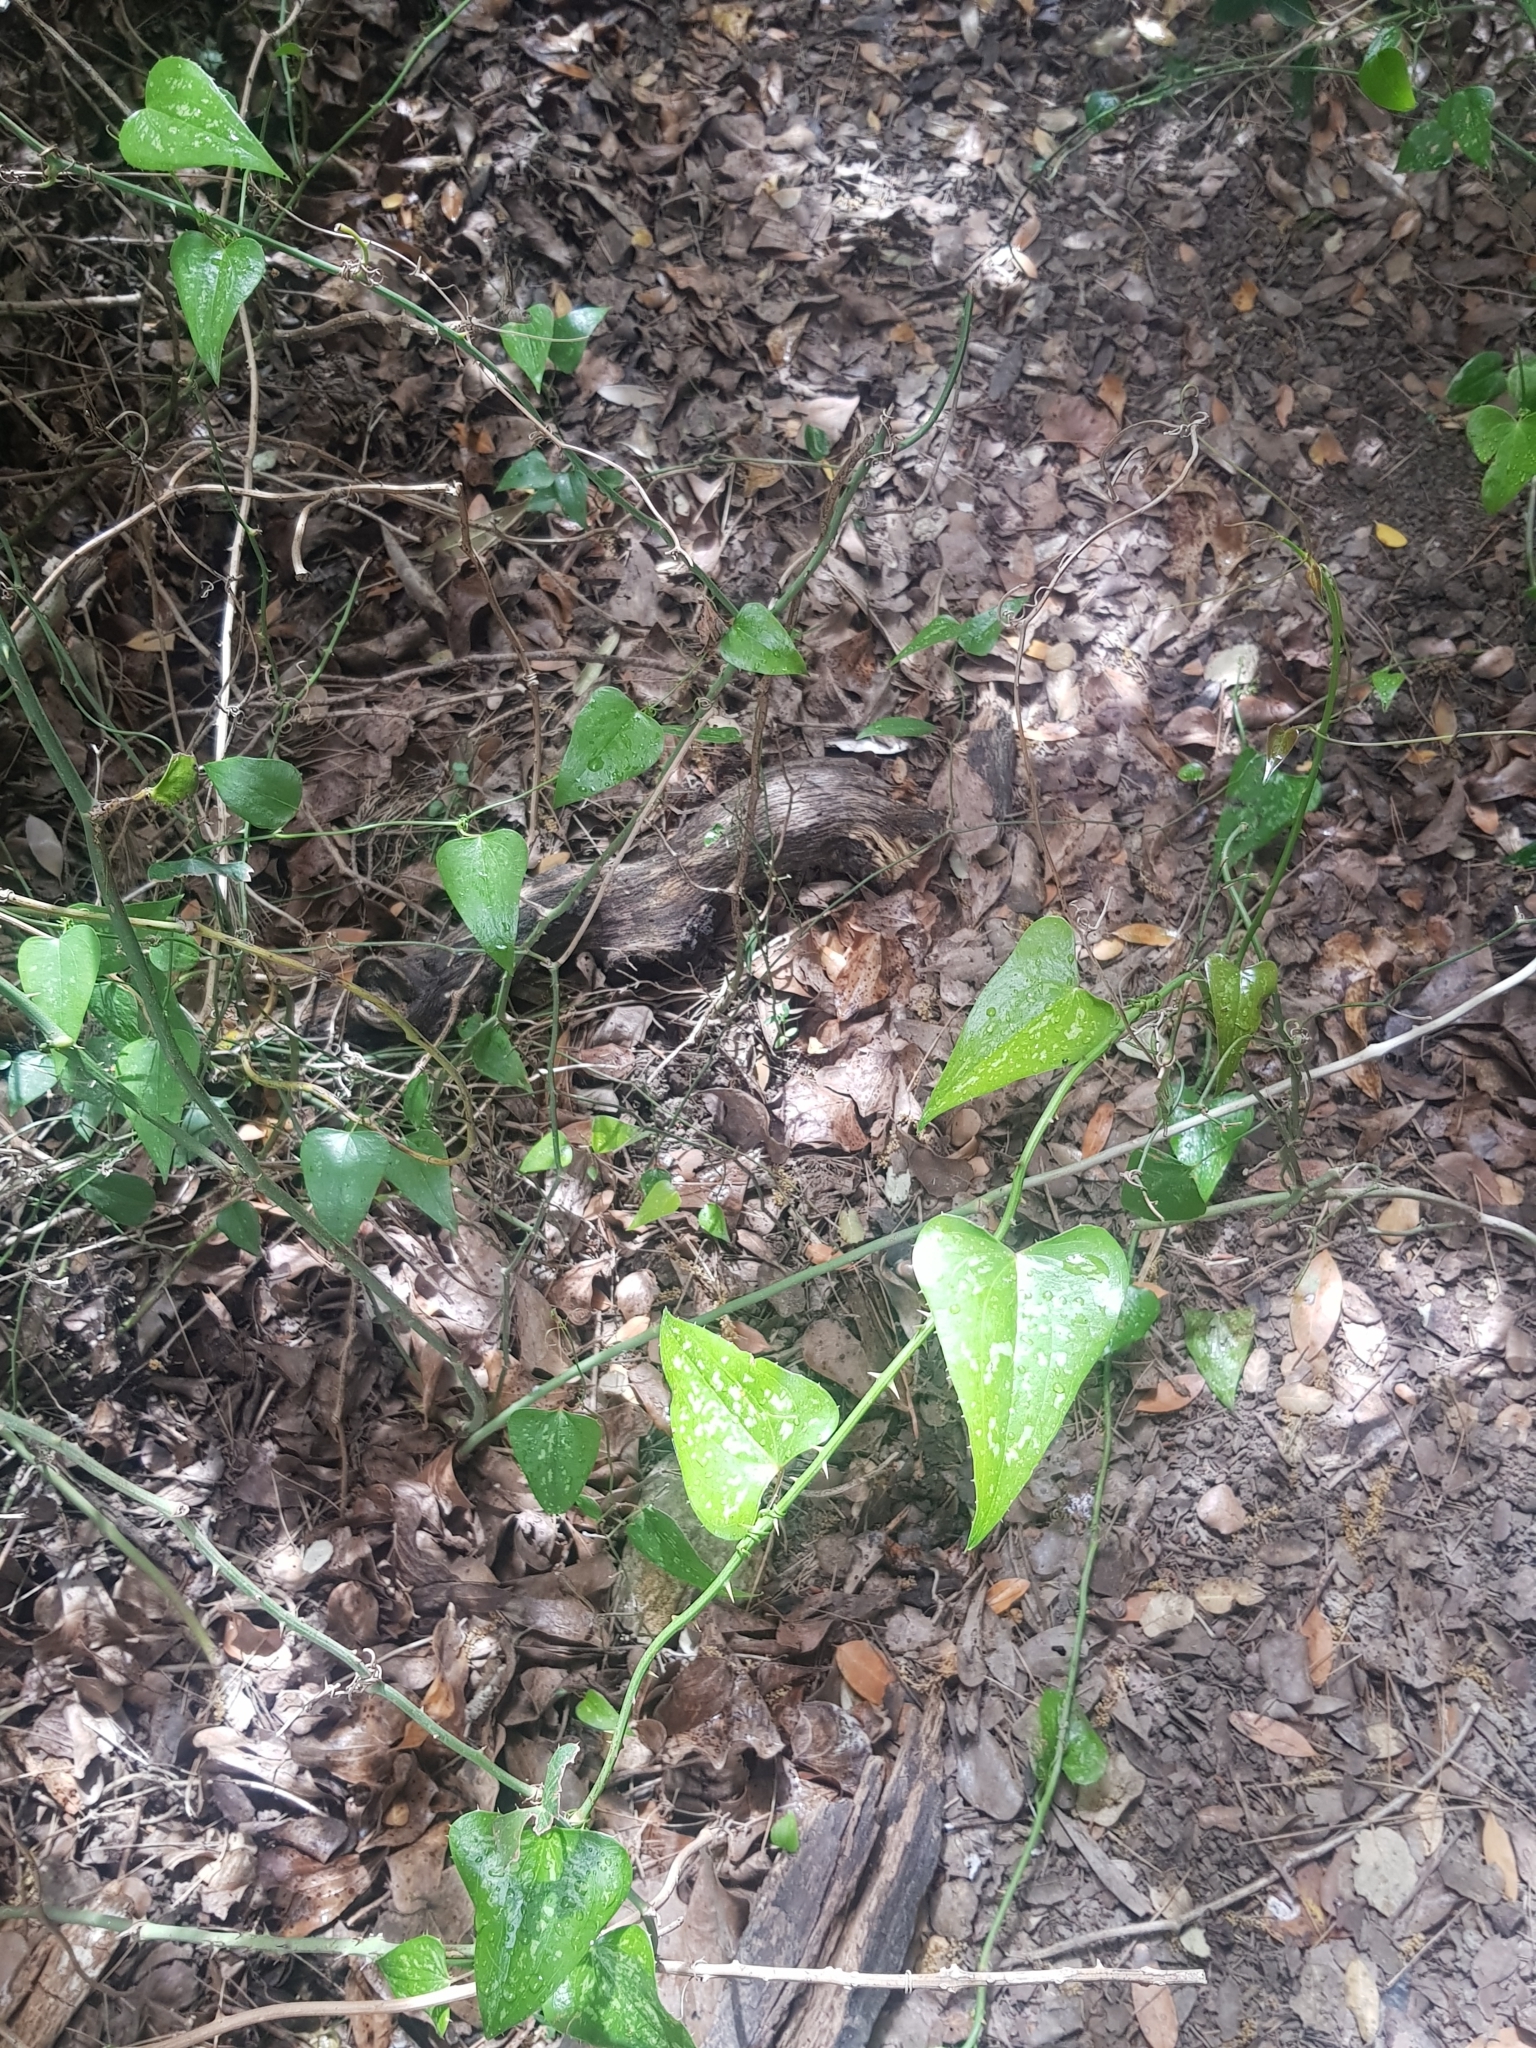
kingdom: Plantae
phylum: Tracheophyta
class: Liliopsida
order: Liliales
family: Smilacaceae
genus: Smilax
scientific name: Smilax aspera
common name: Common smilax
